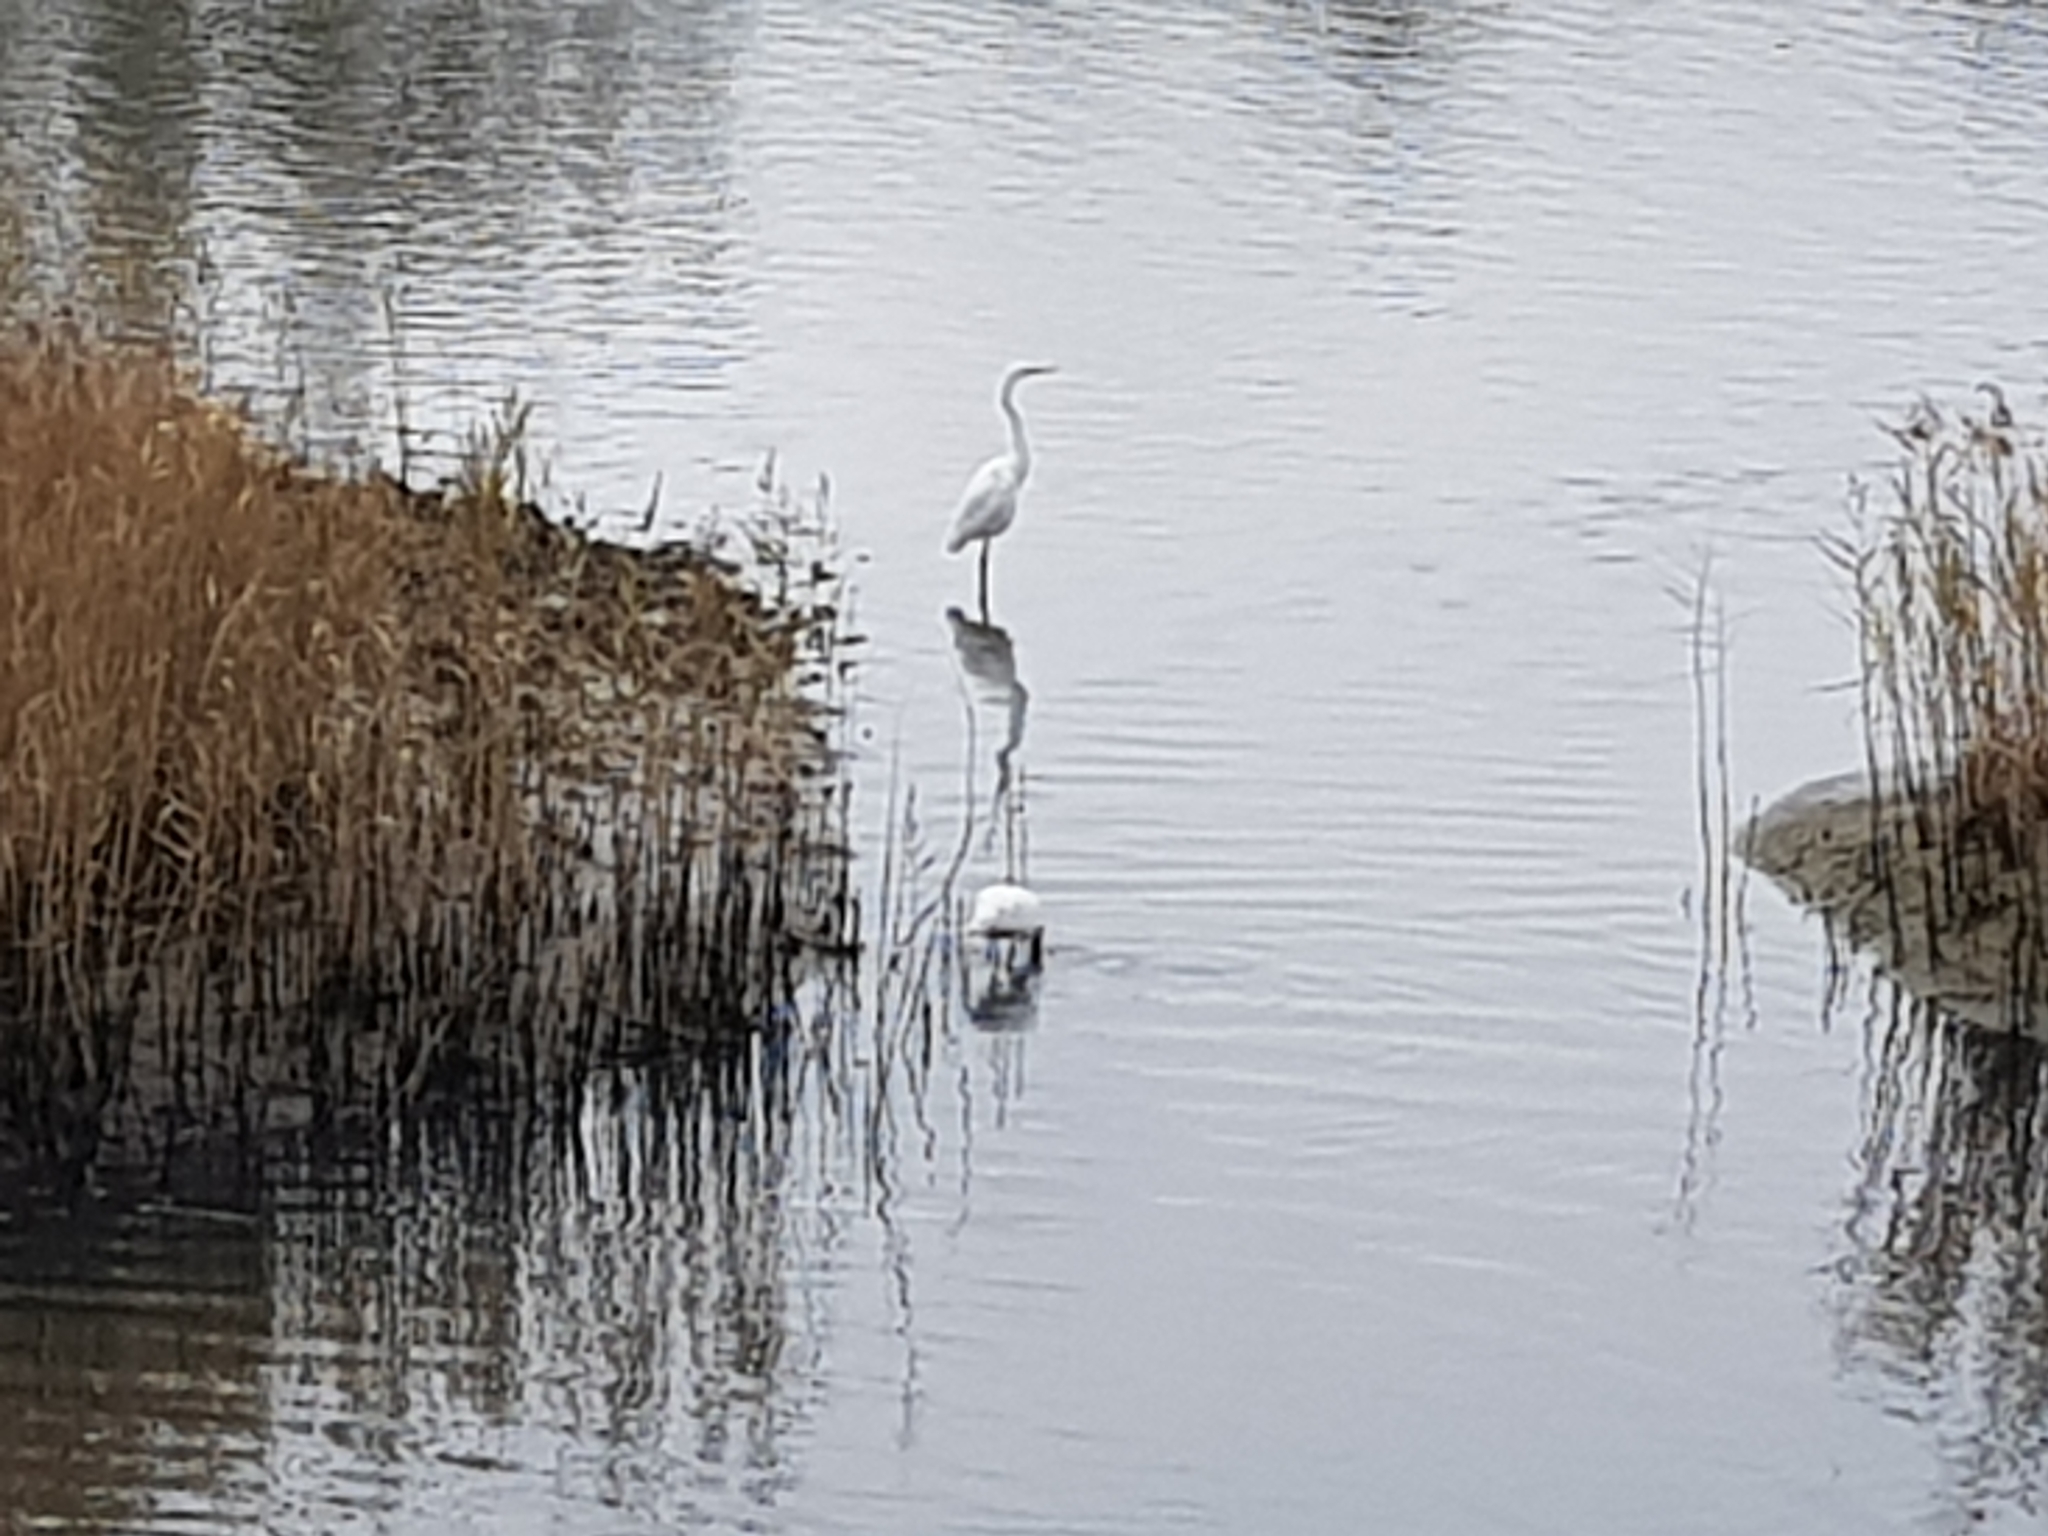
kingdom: Animalia
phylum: Chordata
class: Aves
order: Pelecaniformes
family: Ardeidae
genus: Ardea
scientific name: Ardea alba
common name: Great egret
